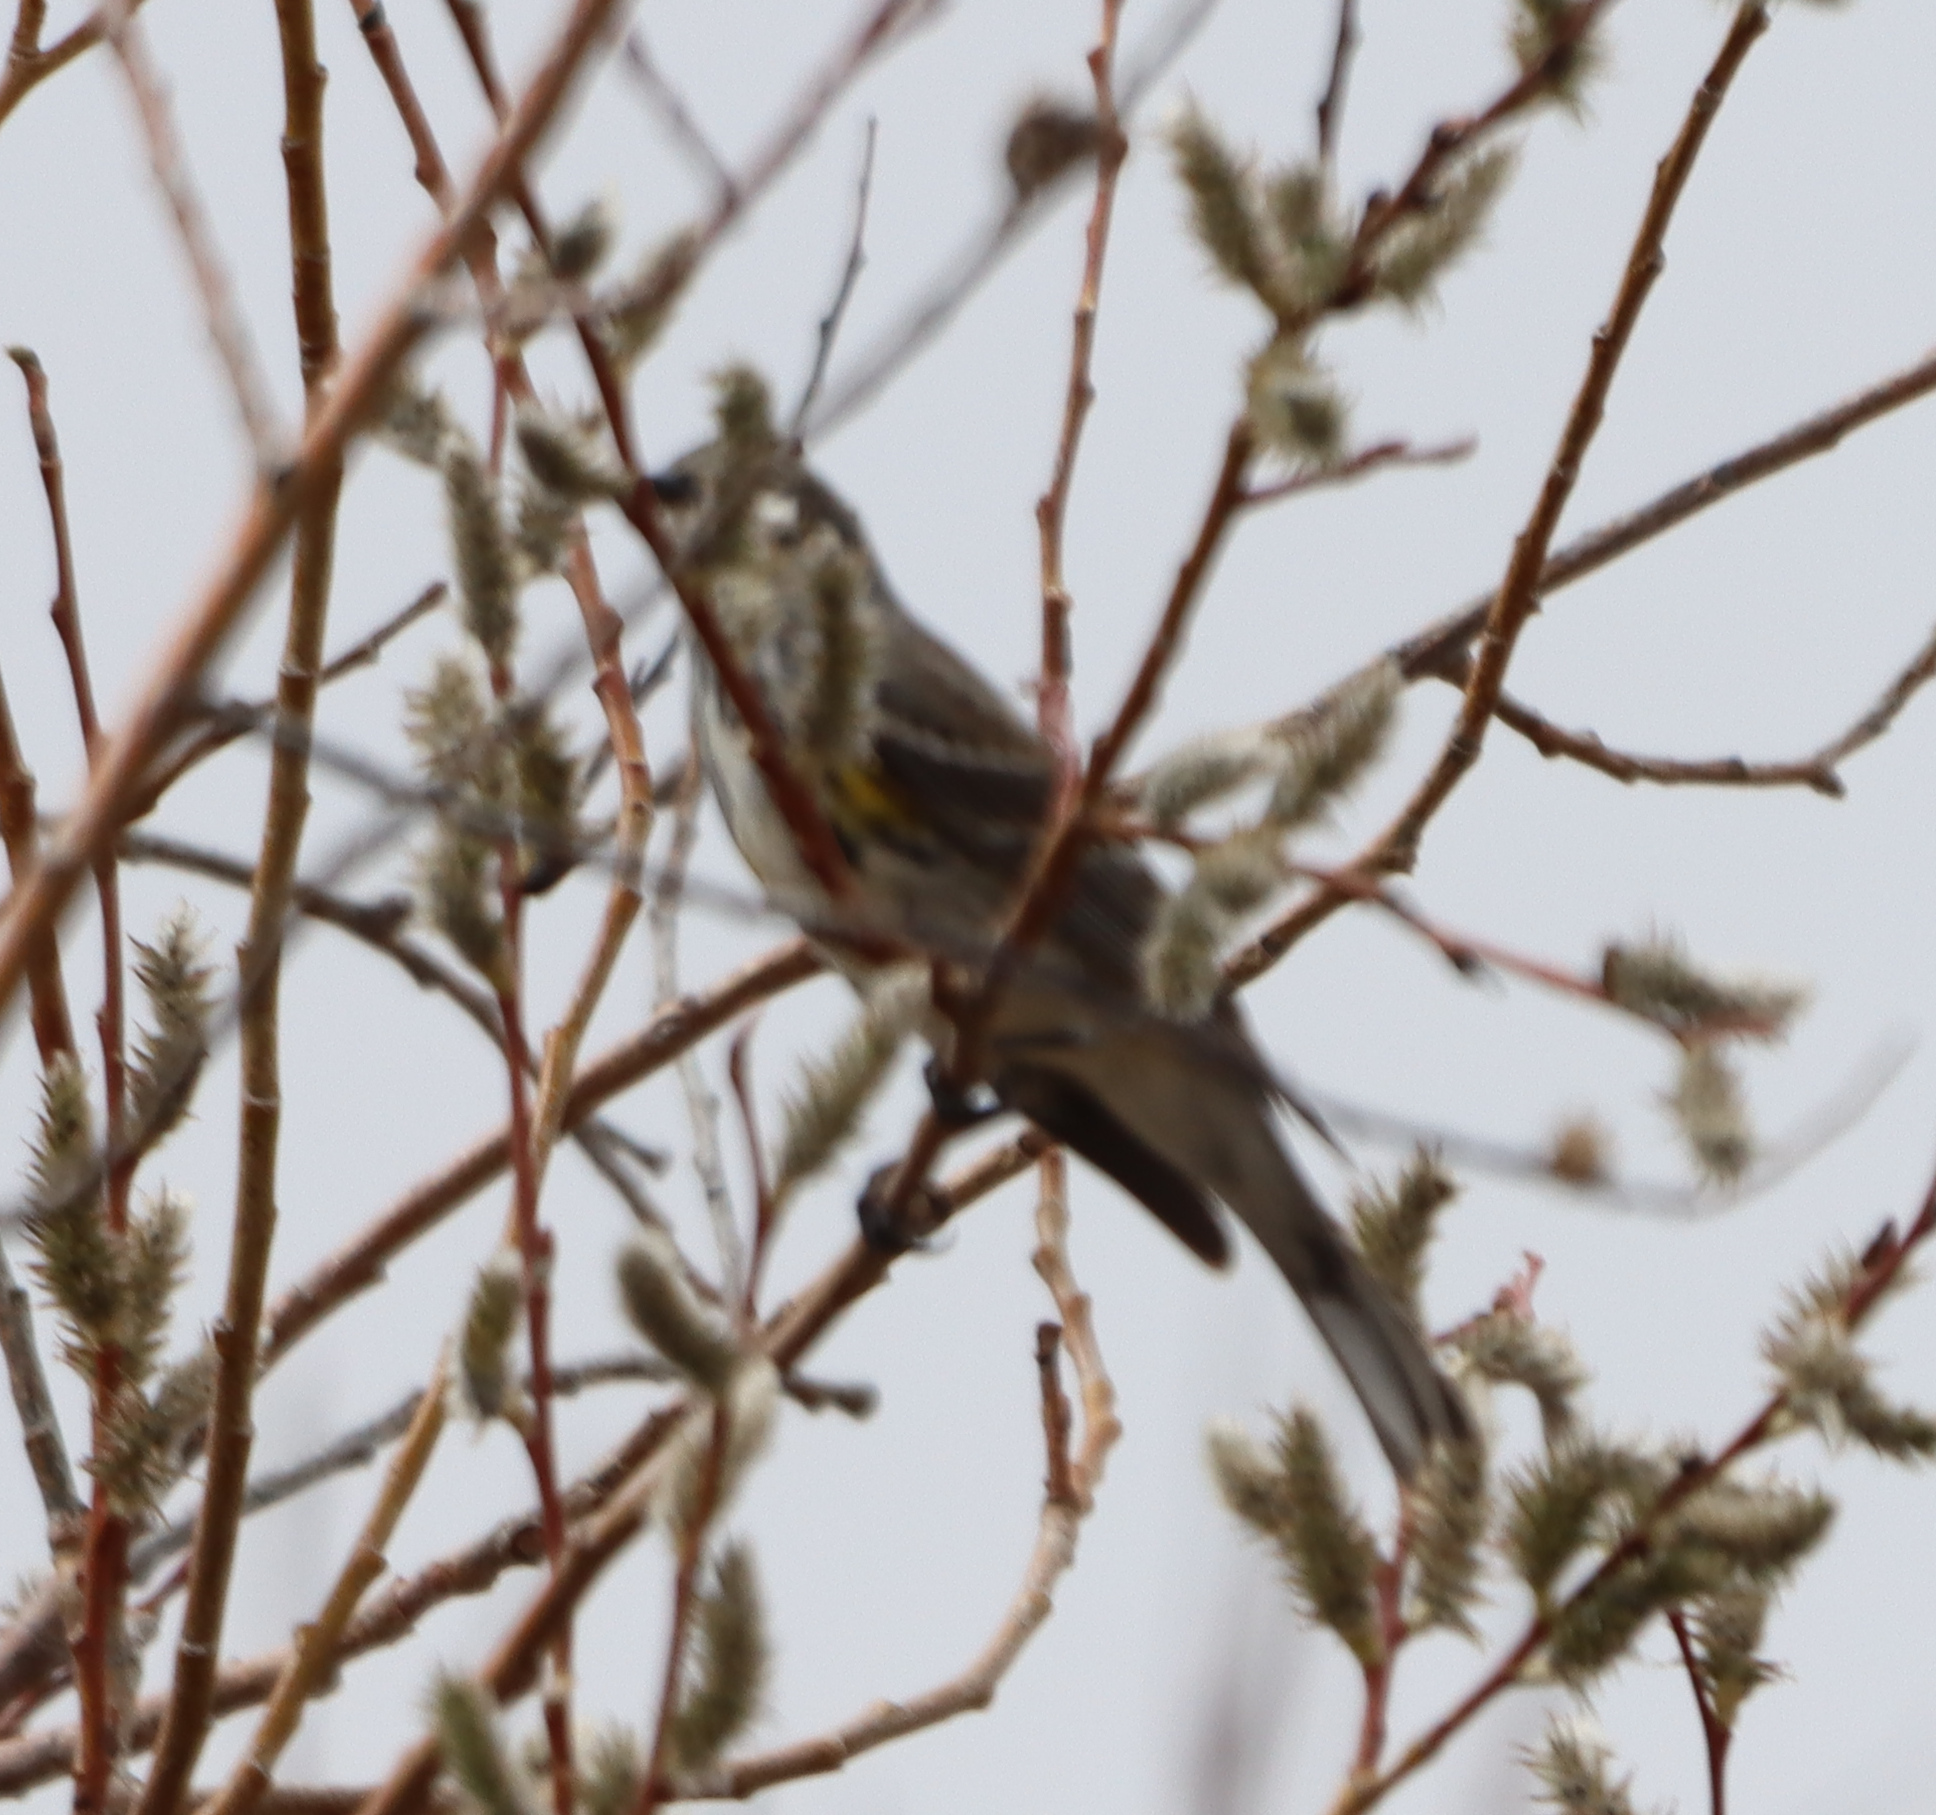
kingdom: Animalia
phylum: Chordata
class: Aves
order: Passeriformes
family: Parulidae
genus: Setophaga
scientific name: Setophaga coronata
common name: Myrtle warbler
